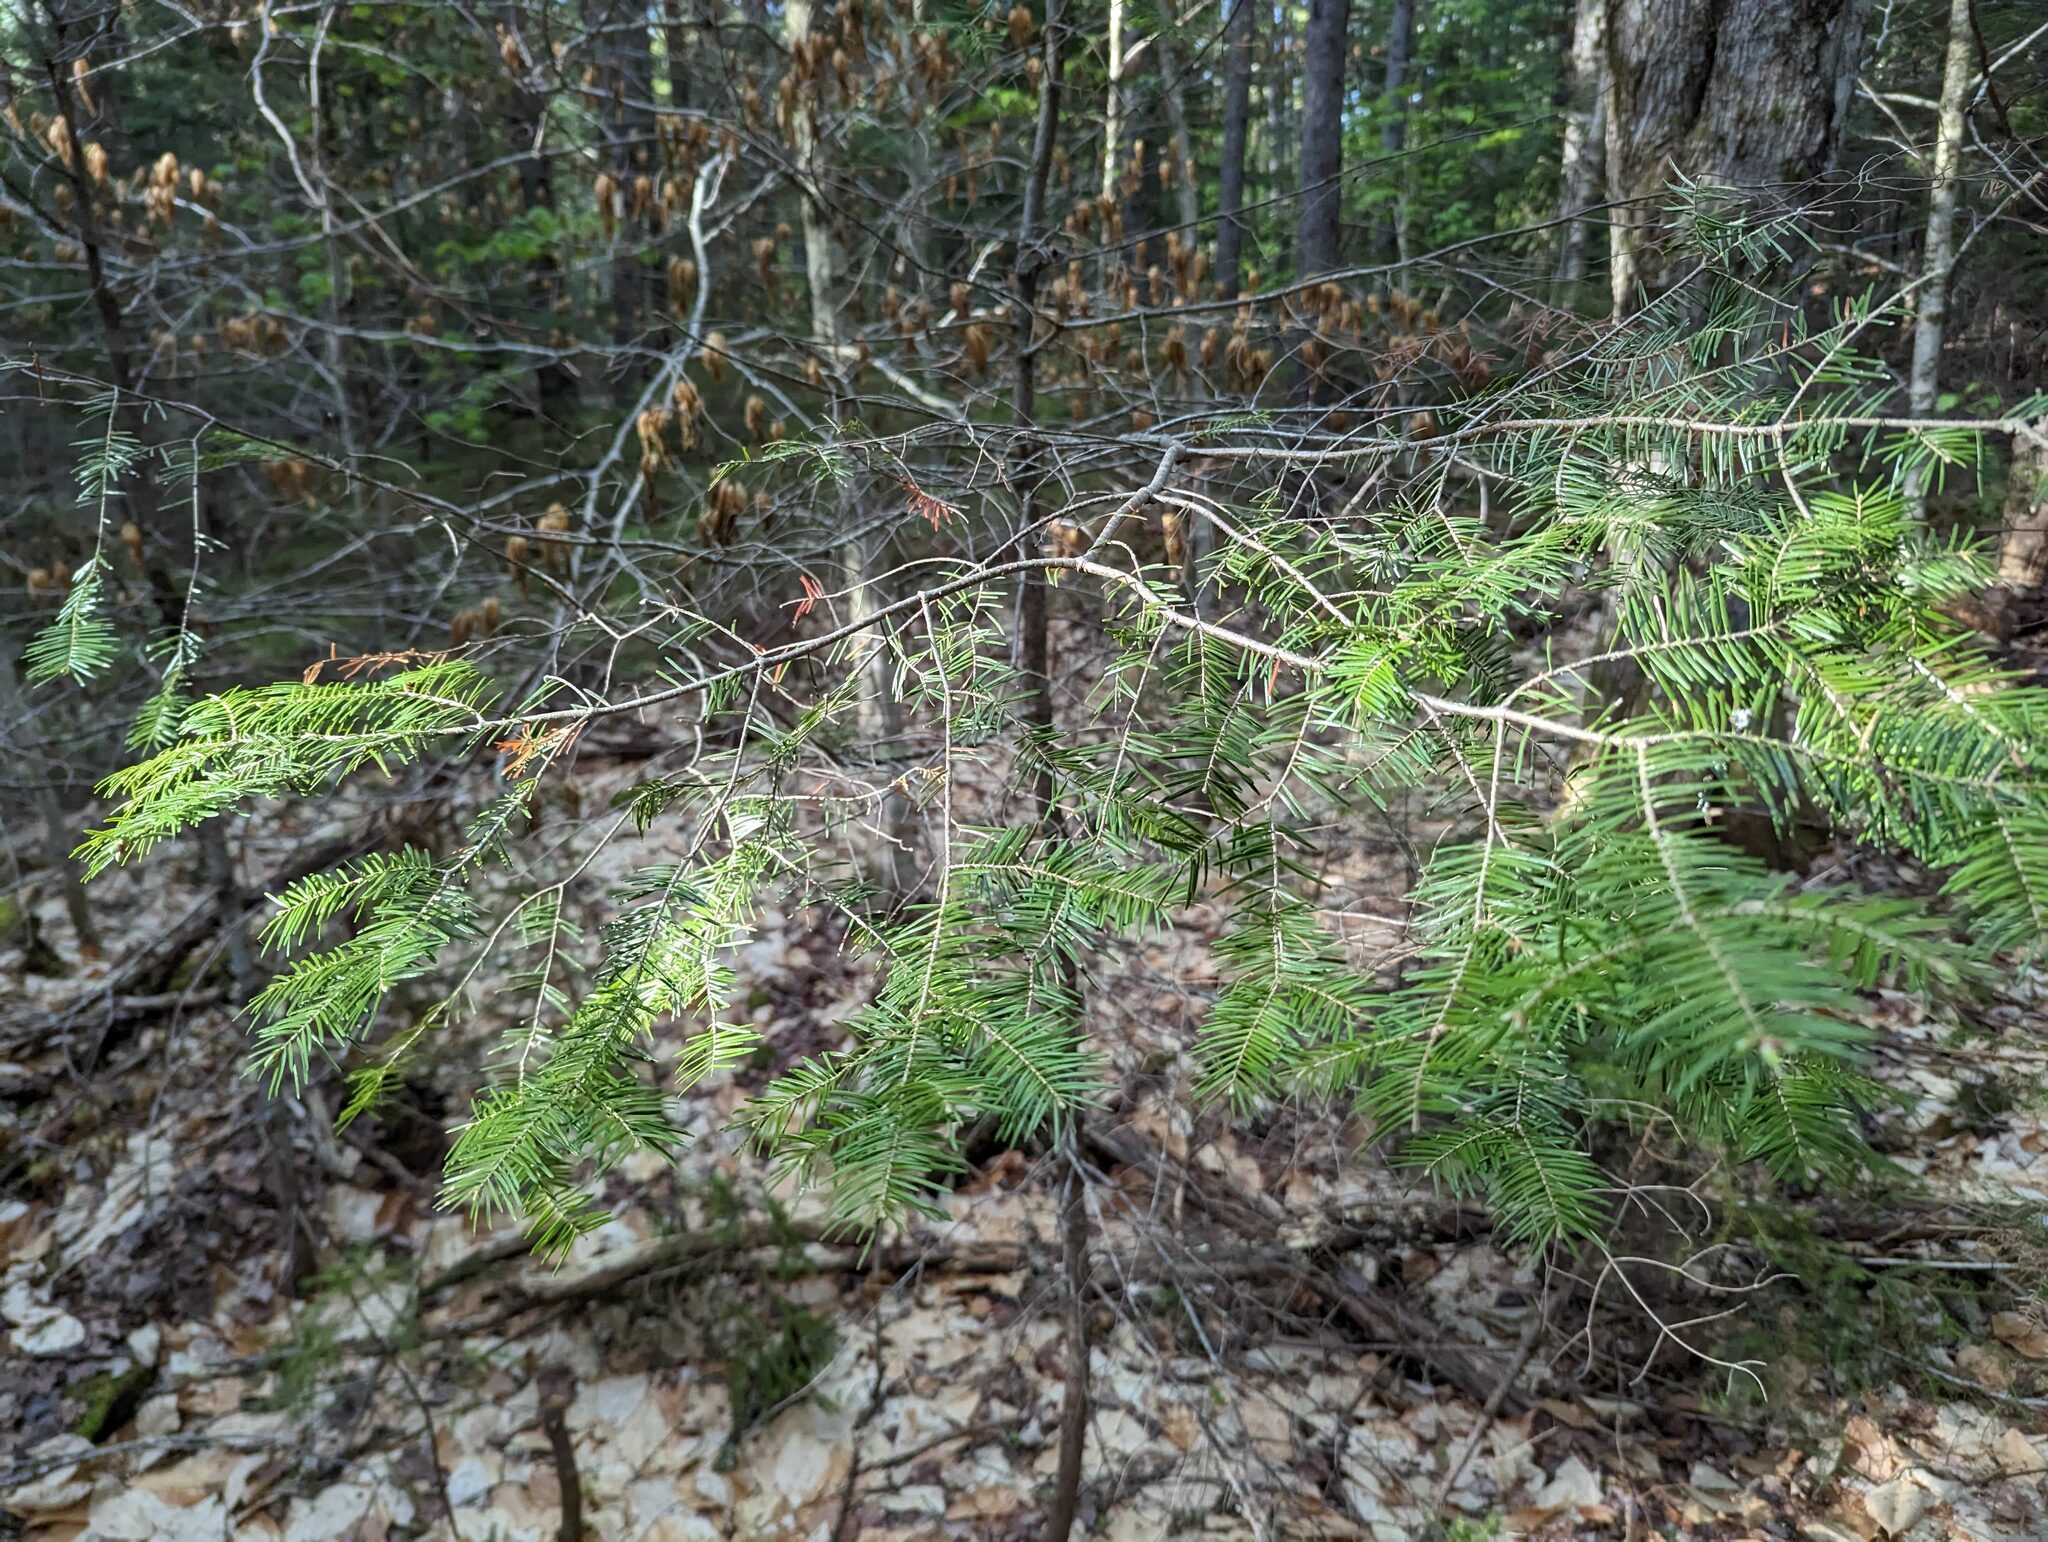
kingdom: Plantae
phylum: Tracheophyta
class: Pinopsida
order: Pinales
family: Pinaceae
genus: Abies
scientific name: Abies balsamea
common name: Balsam fir
